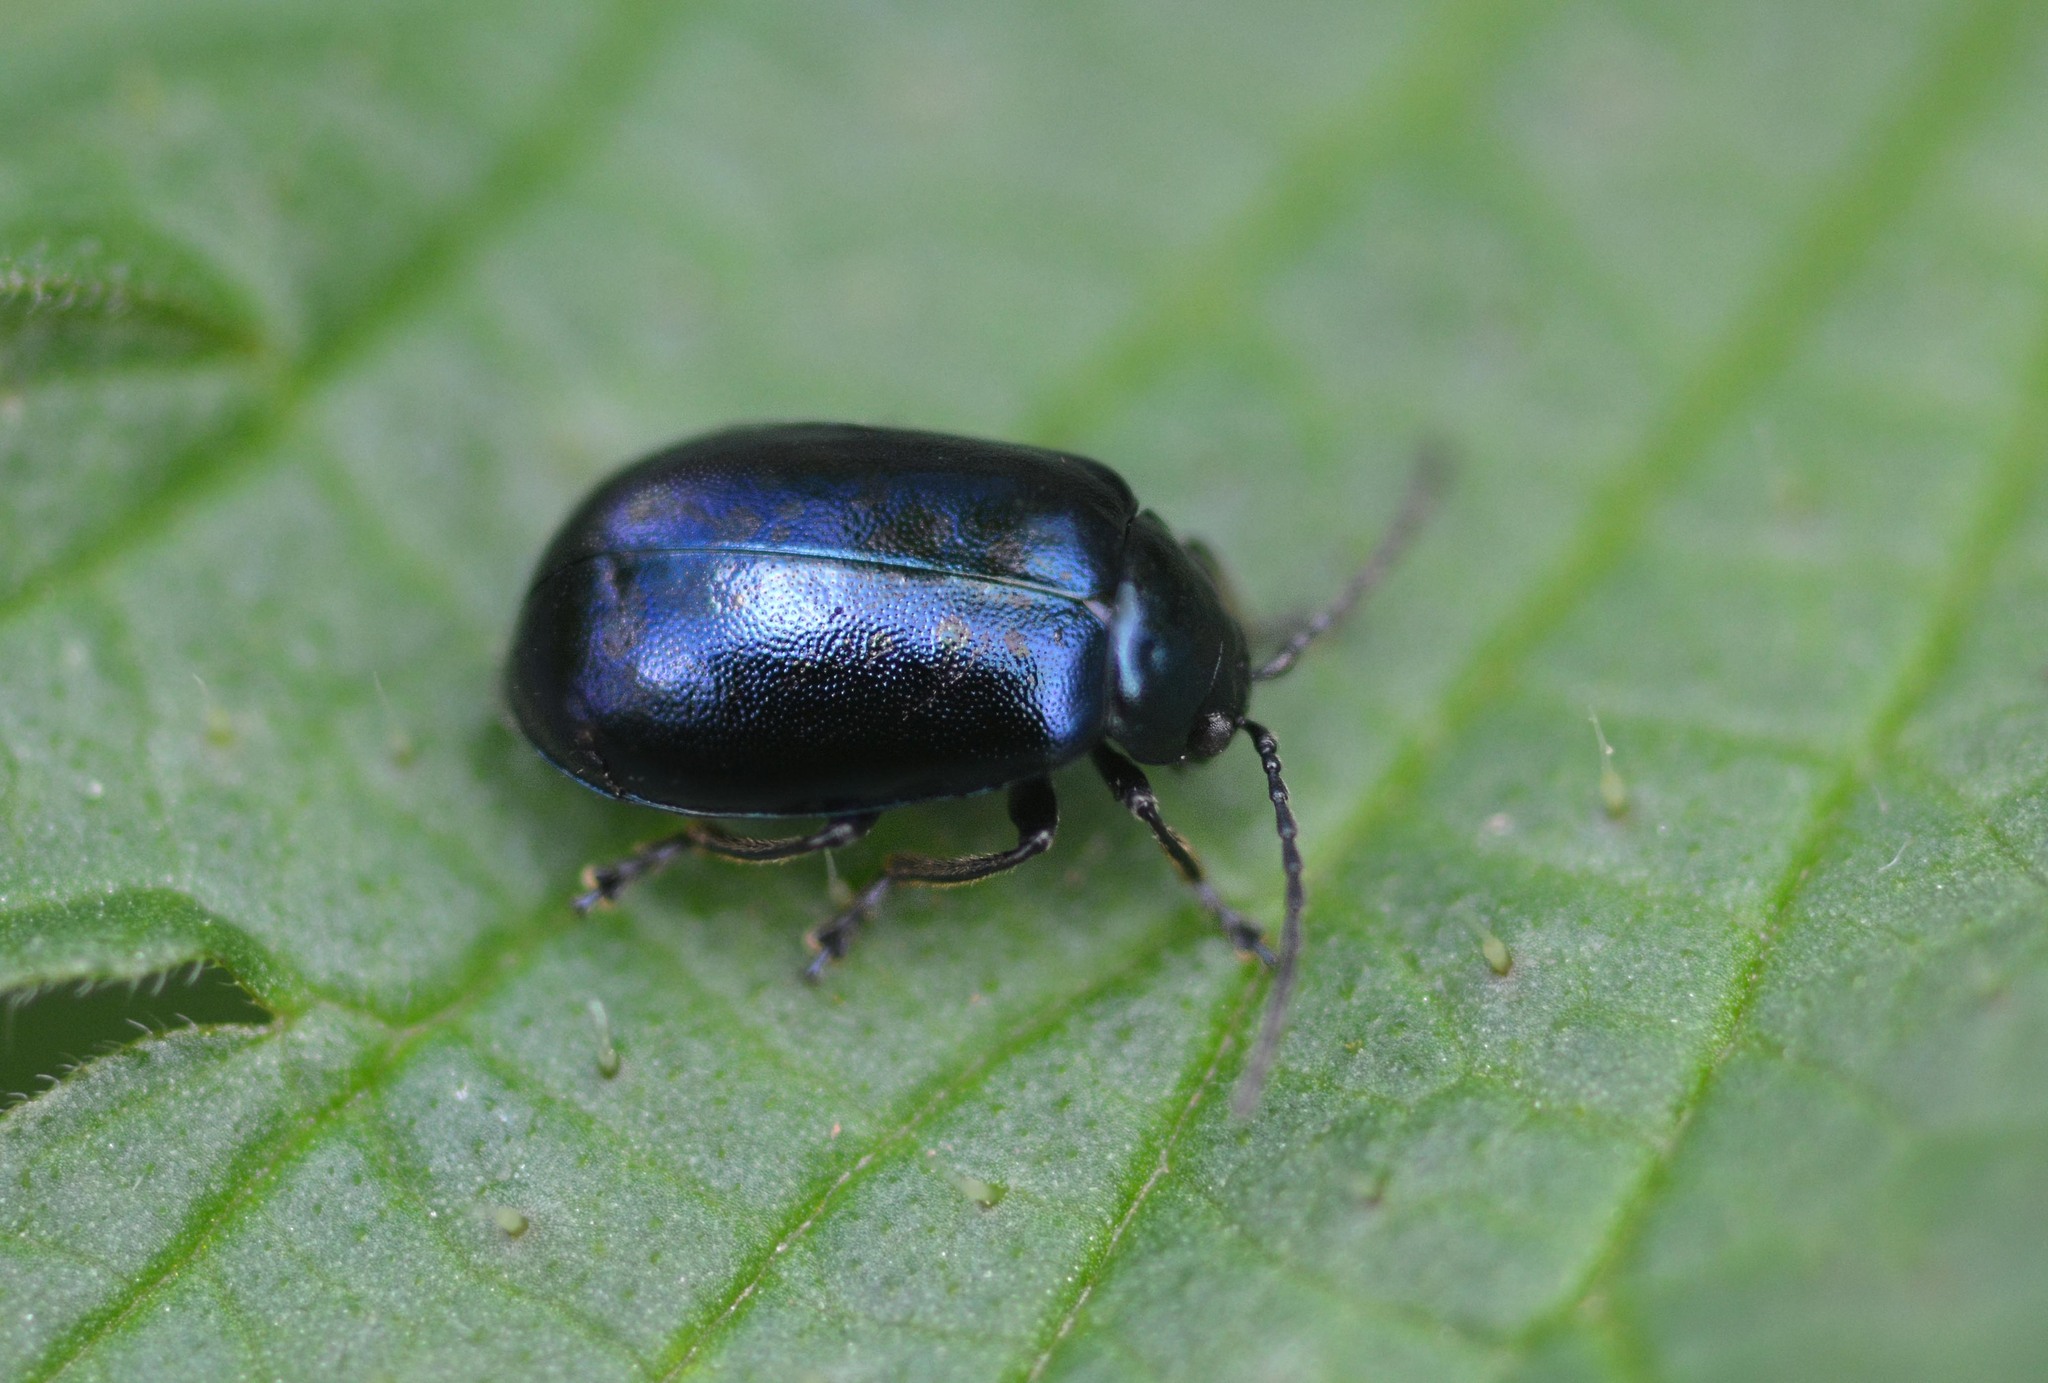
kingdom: Animalia
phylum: Arthropoda
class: Insecta
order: Coleoptera
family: Chrysomelidae
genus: Agelastica
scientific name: Agelastica alni
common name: Alder leaf beetle
